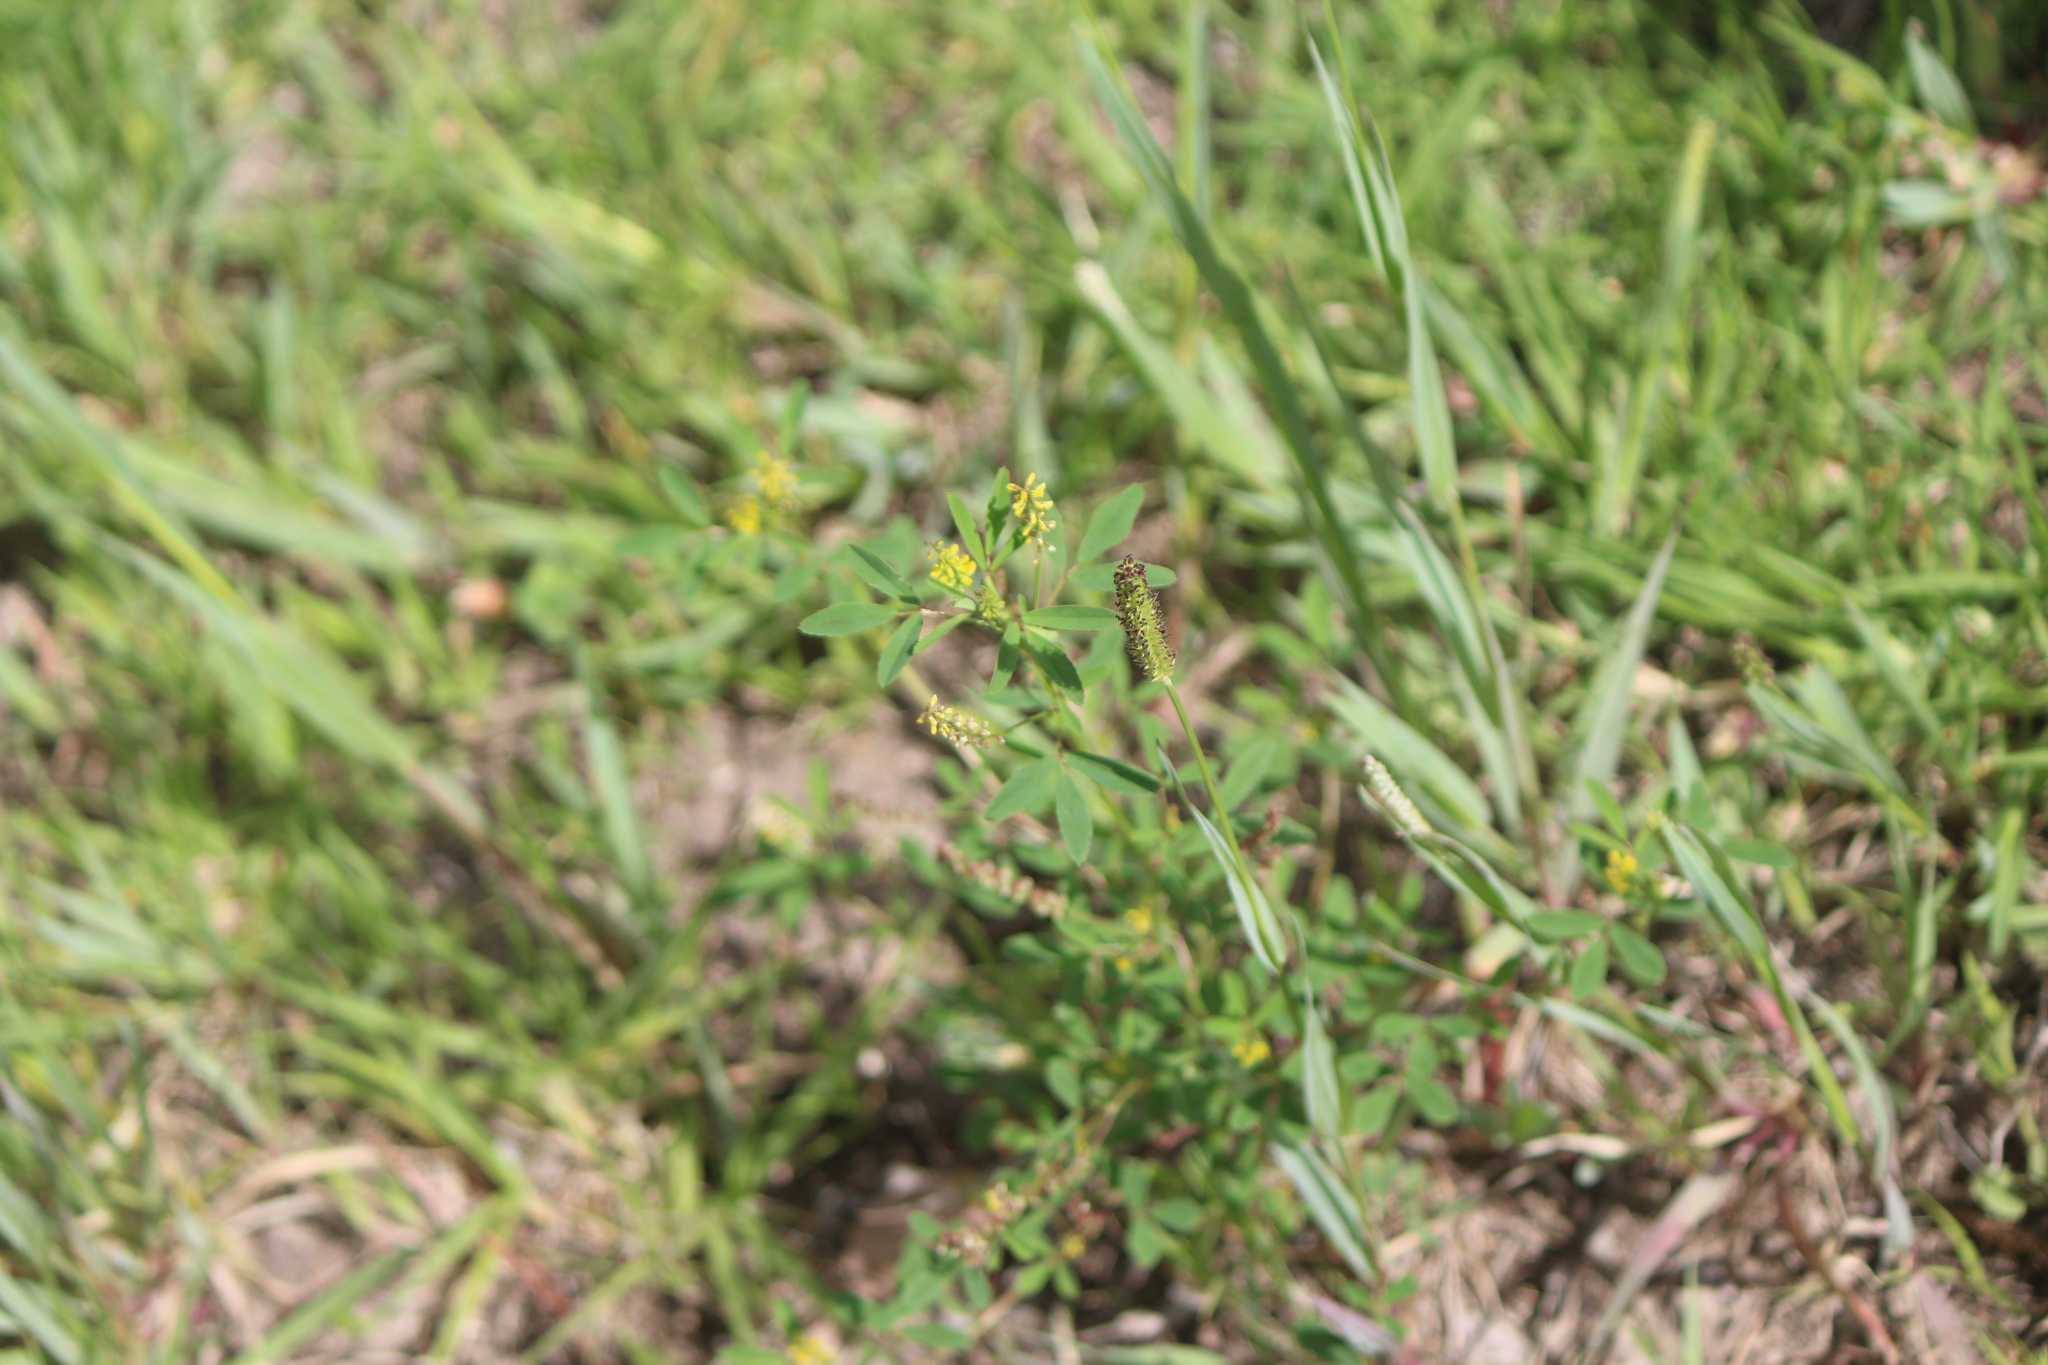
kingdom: Plantae
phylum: Tracheophyta
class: Magnoliopsida
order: Fabales
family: Fabaceae
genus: Melilotus
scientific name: Melilotus indicus
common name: Small melilot
